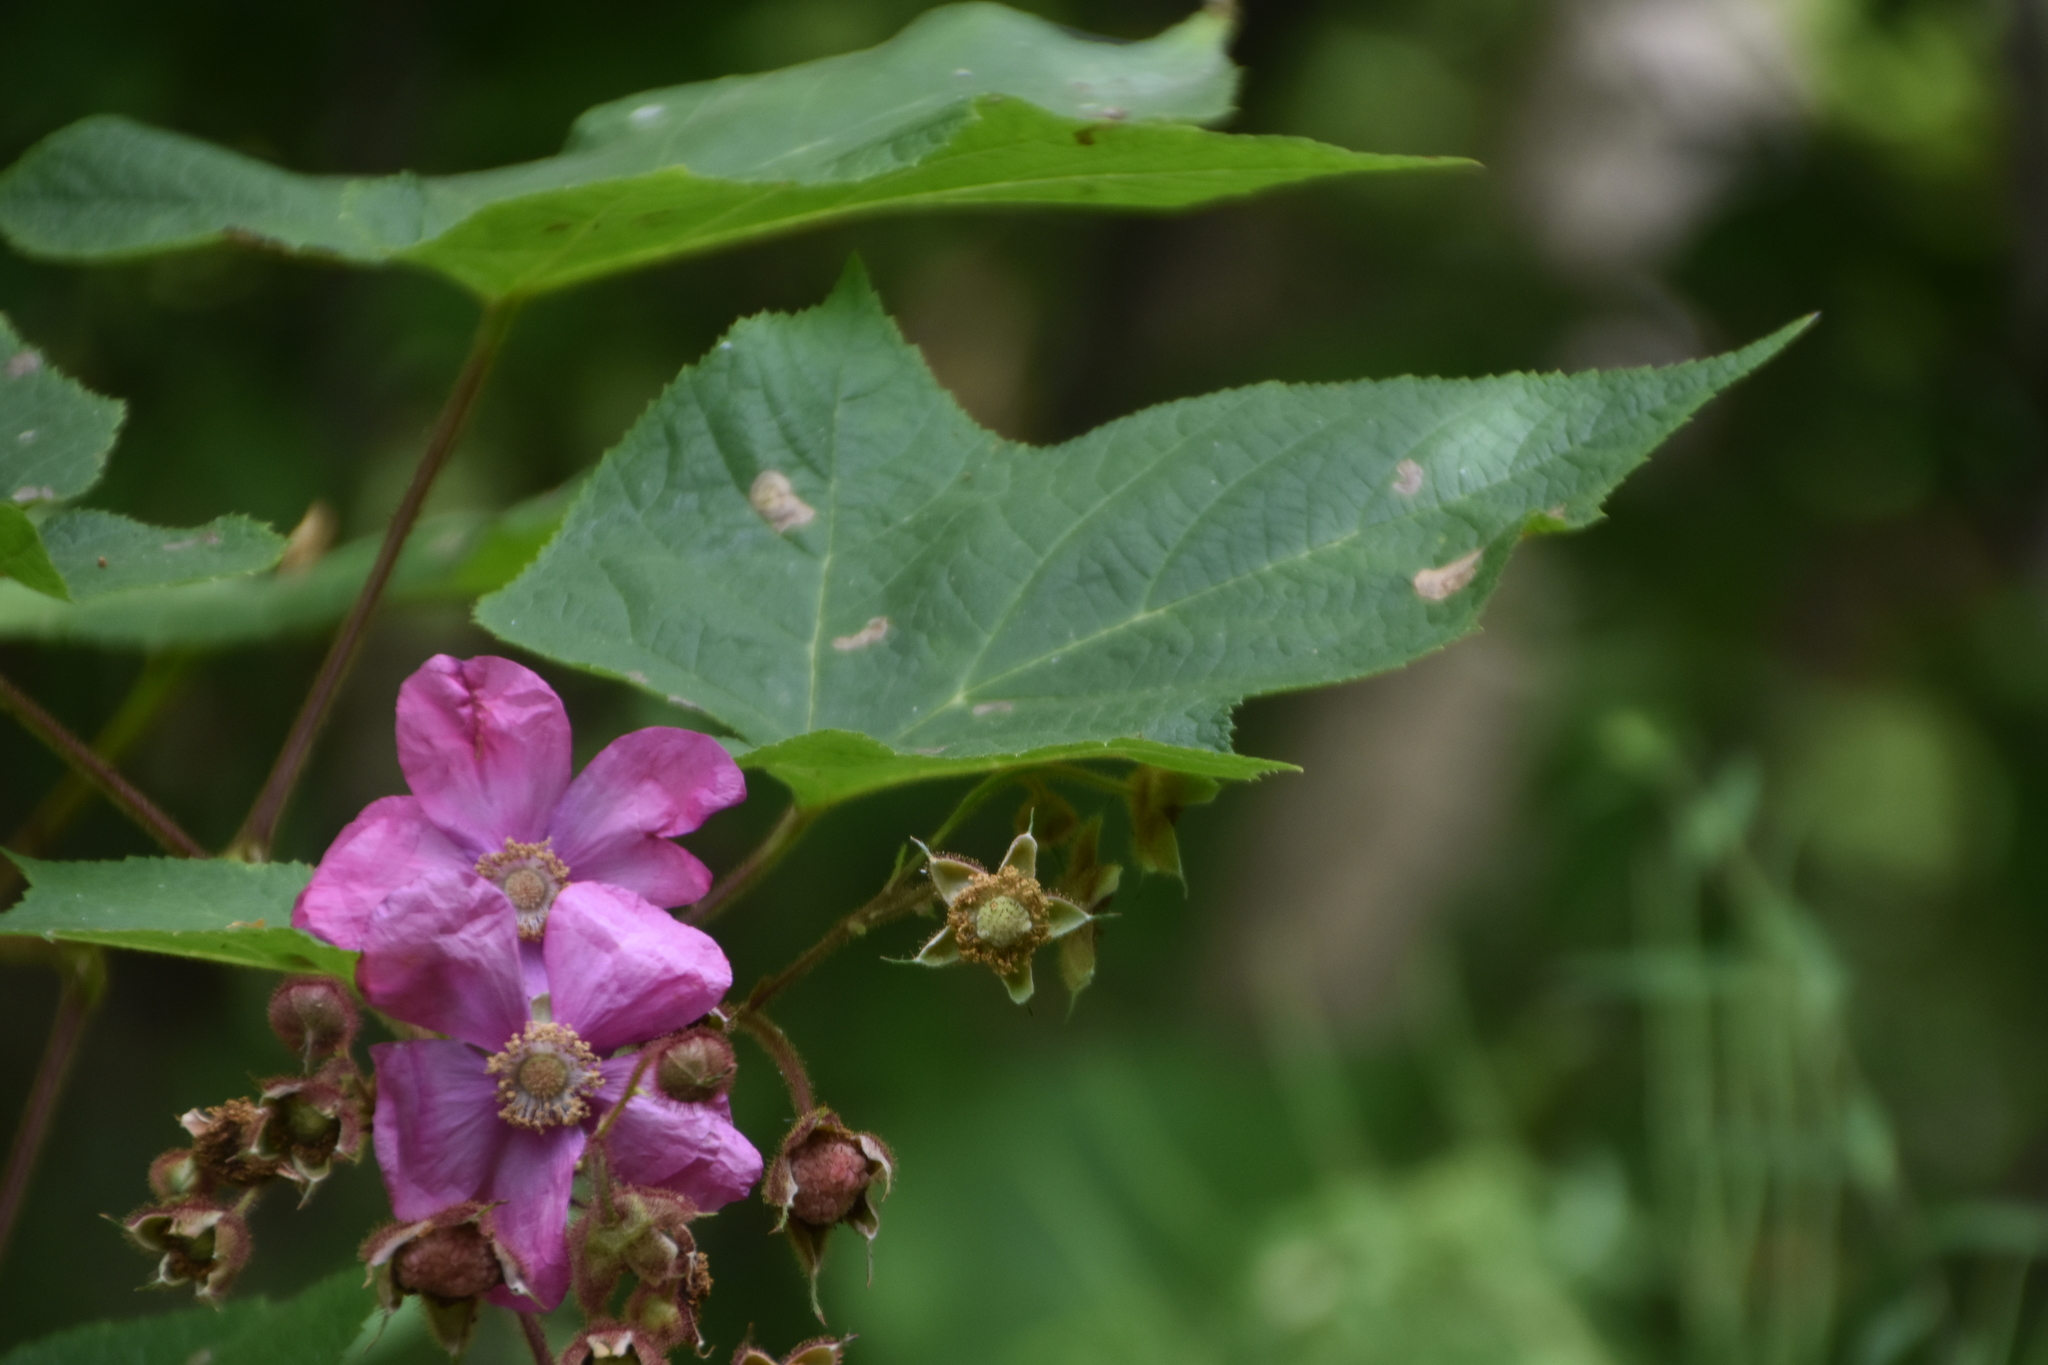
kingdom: Plantae
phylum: Tracheophyta
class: Magnoliopsida
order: Rosales
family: Rosaceae
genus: Rubus
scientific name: Rubus odoratus
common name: Purple-flowered raspberry
